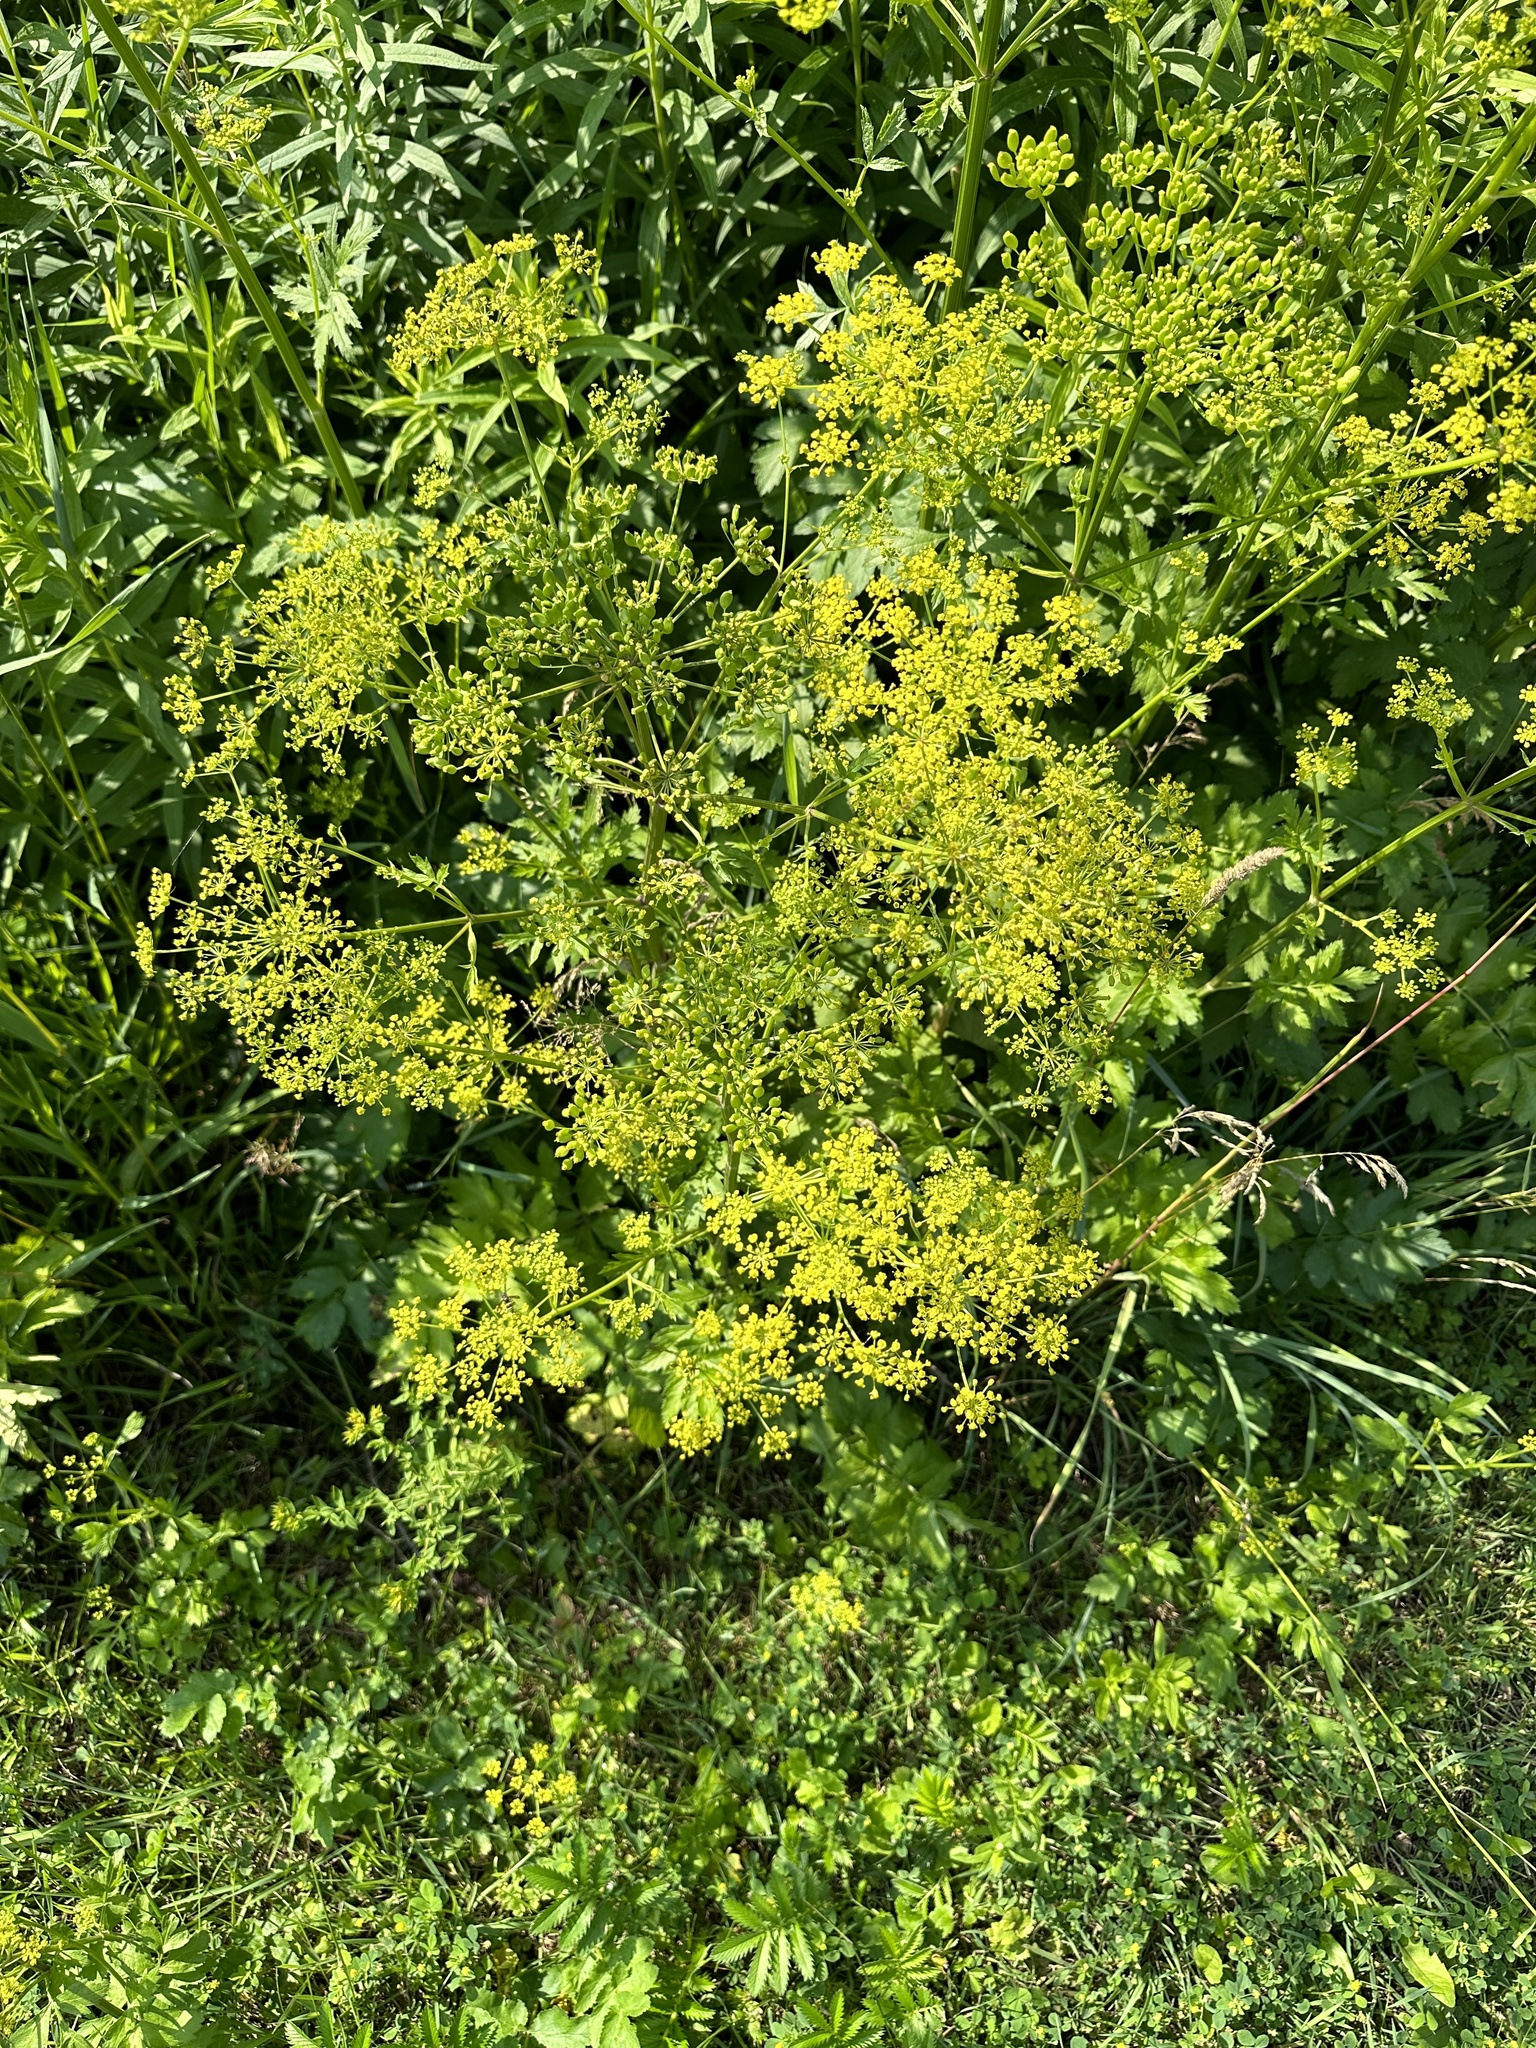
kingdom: Plantae
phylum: Tracheophyta
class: Magnoliopsida
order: Apiales
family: Apiaceae
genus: Pastinaca
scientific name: Pastinaca sativa
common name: Wild parsnip
